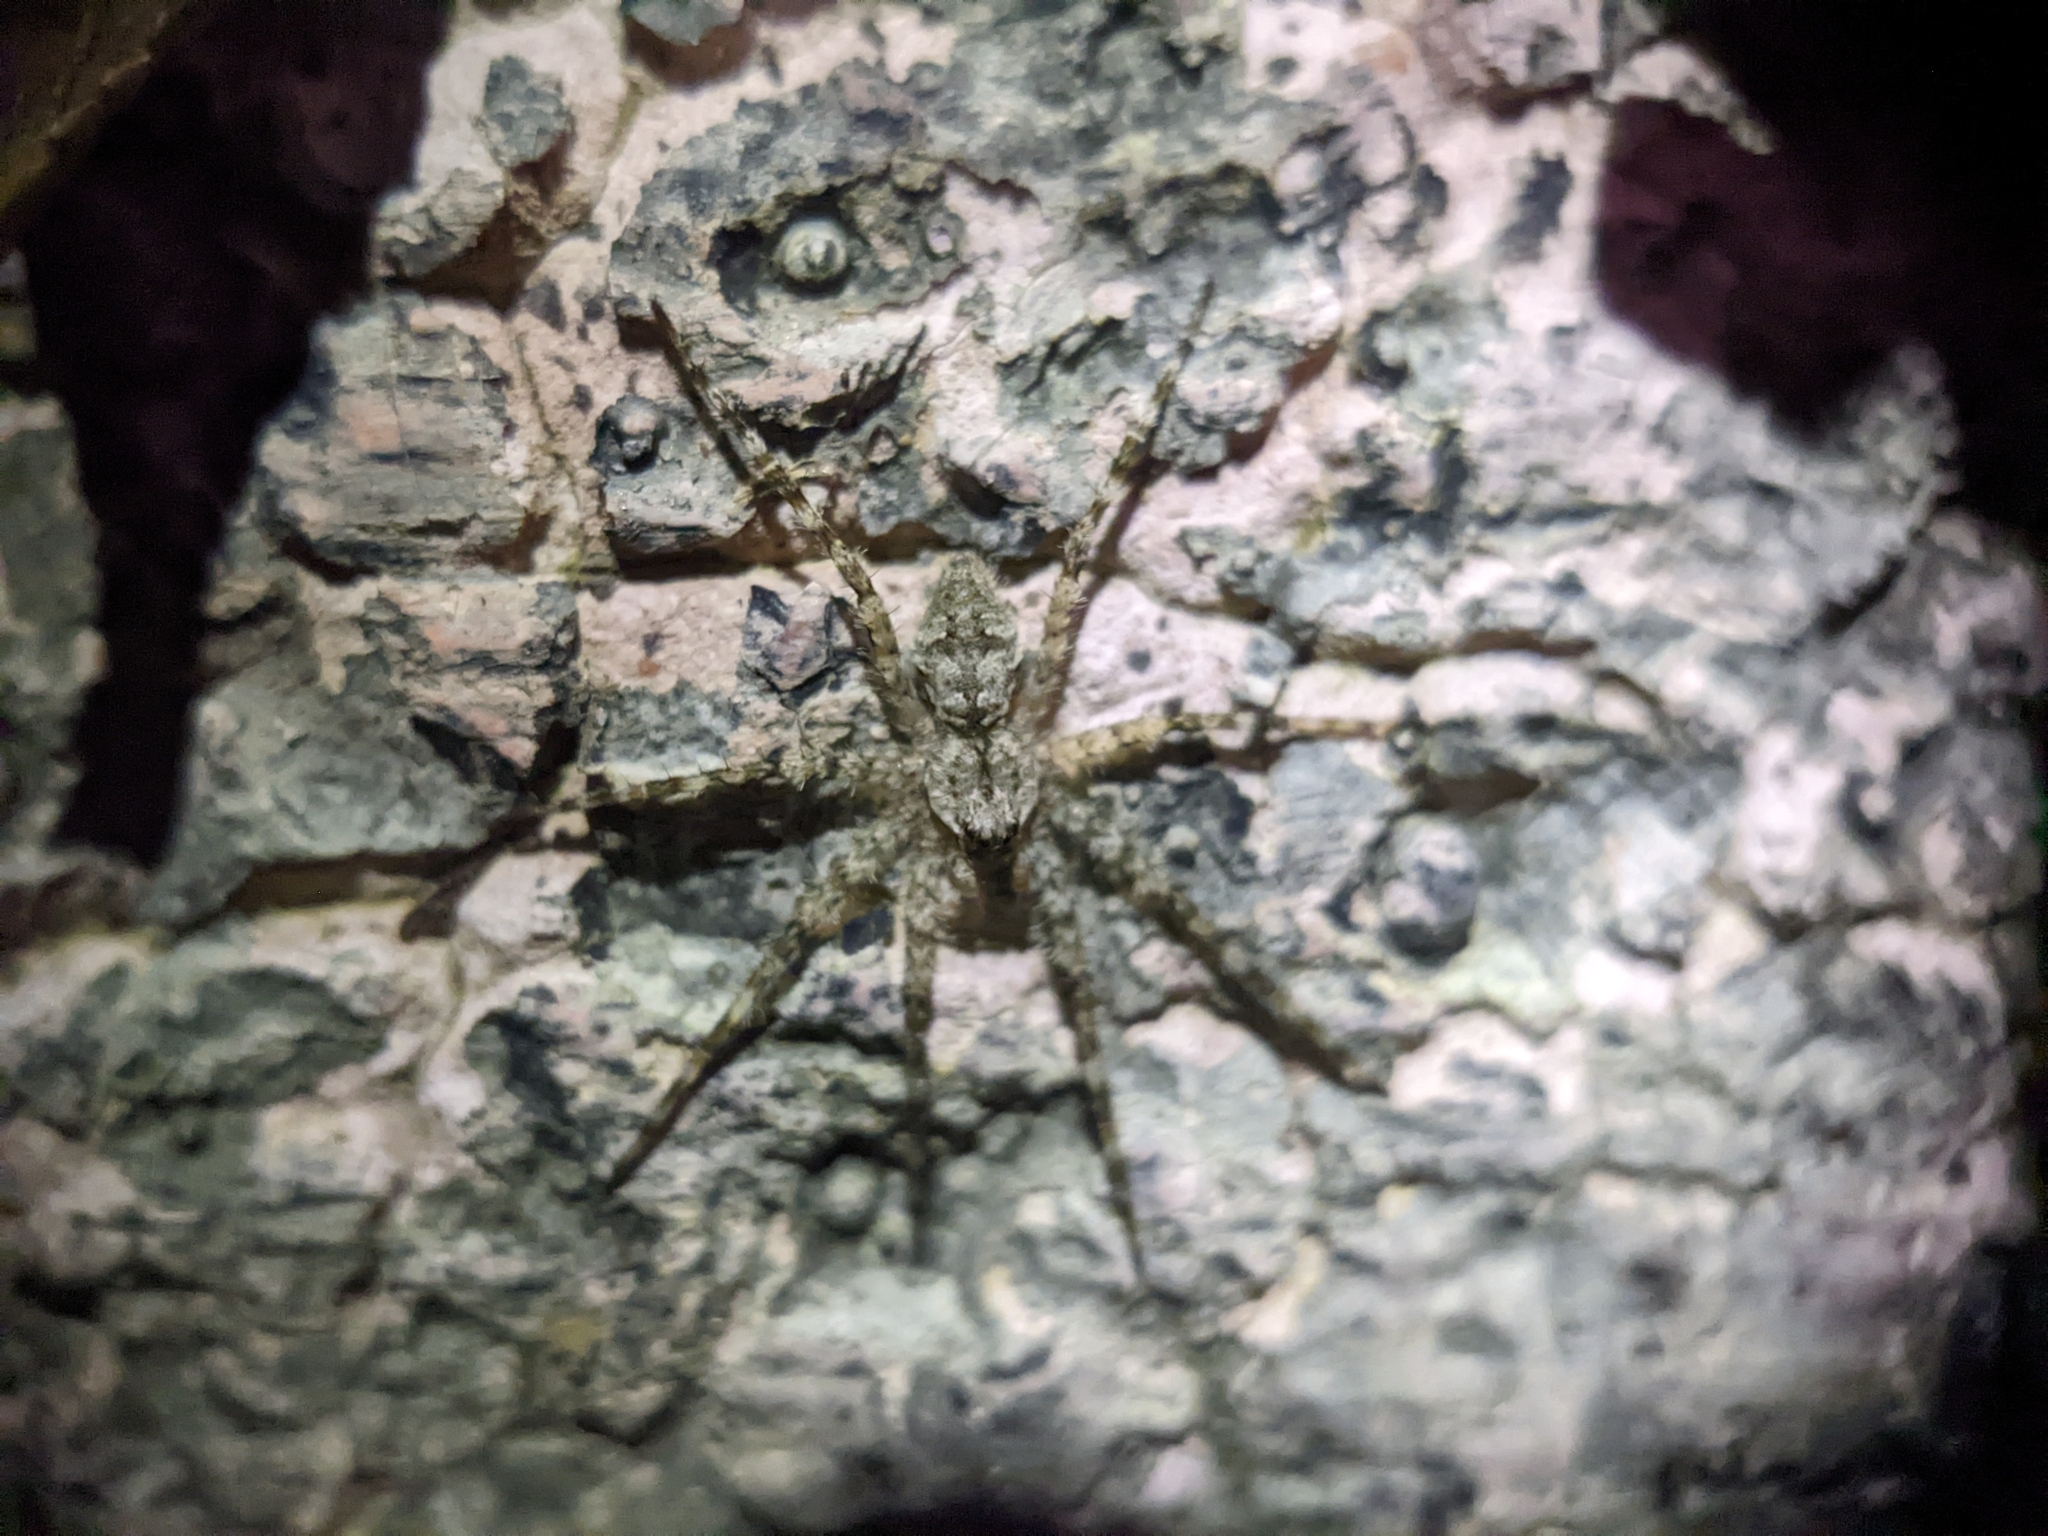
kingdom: Animalia
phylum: Arthropoda
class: Arachnida
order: Araneae
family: Pisauridae
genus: Dolomedes
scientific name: Dolomedes albineus
